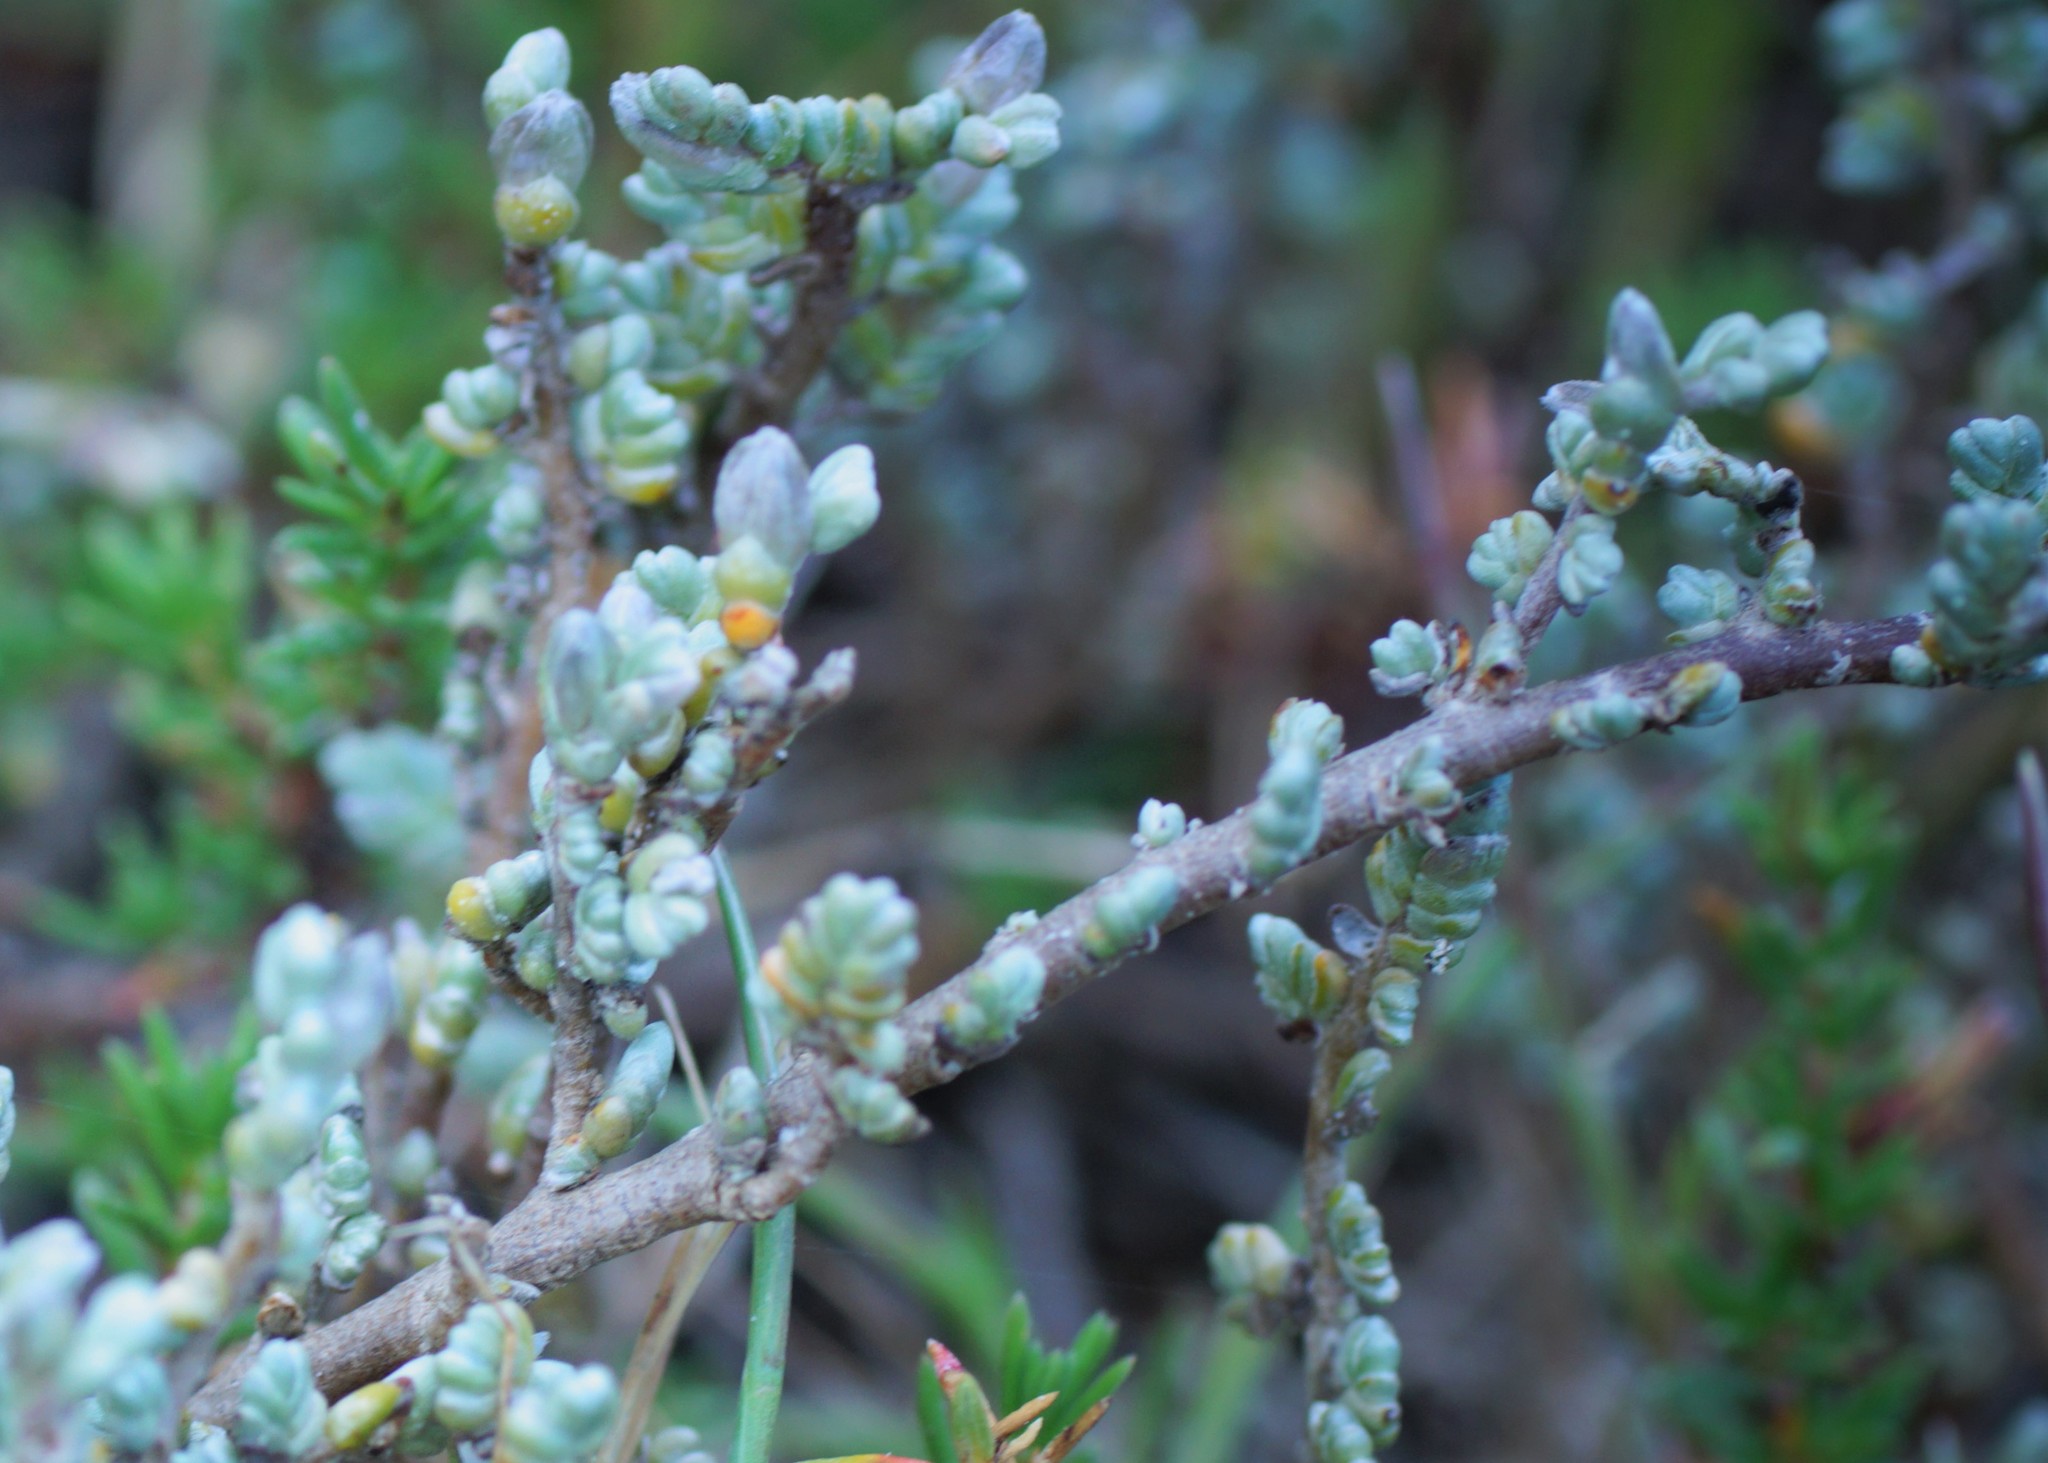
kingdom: Plantae
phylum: Tracheophyta
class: Magnoliopsida
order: Solanales
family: Convolvulaceae
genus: Wilsonia
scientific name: Wilsonia humilis
